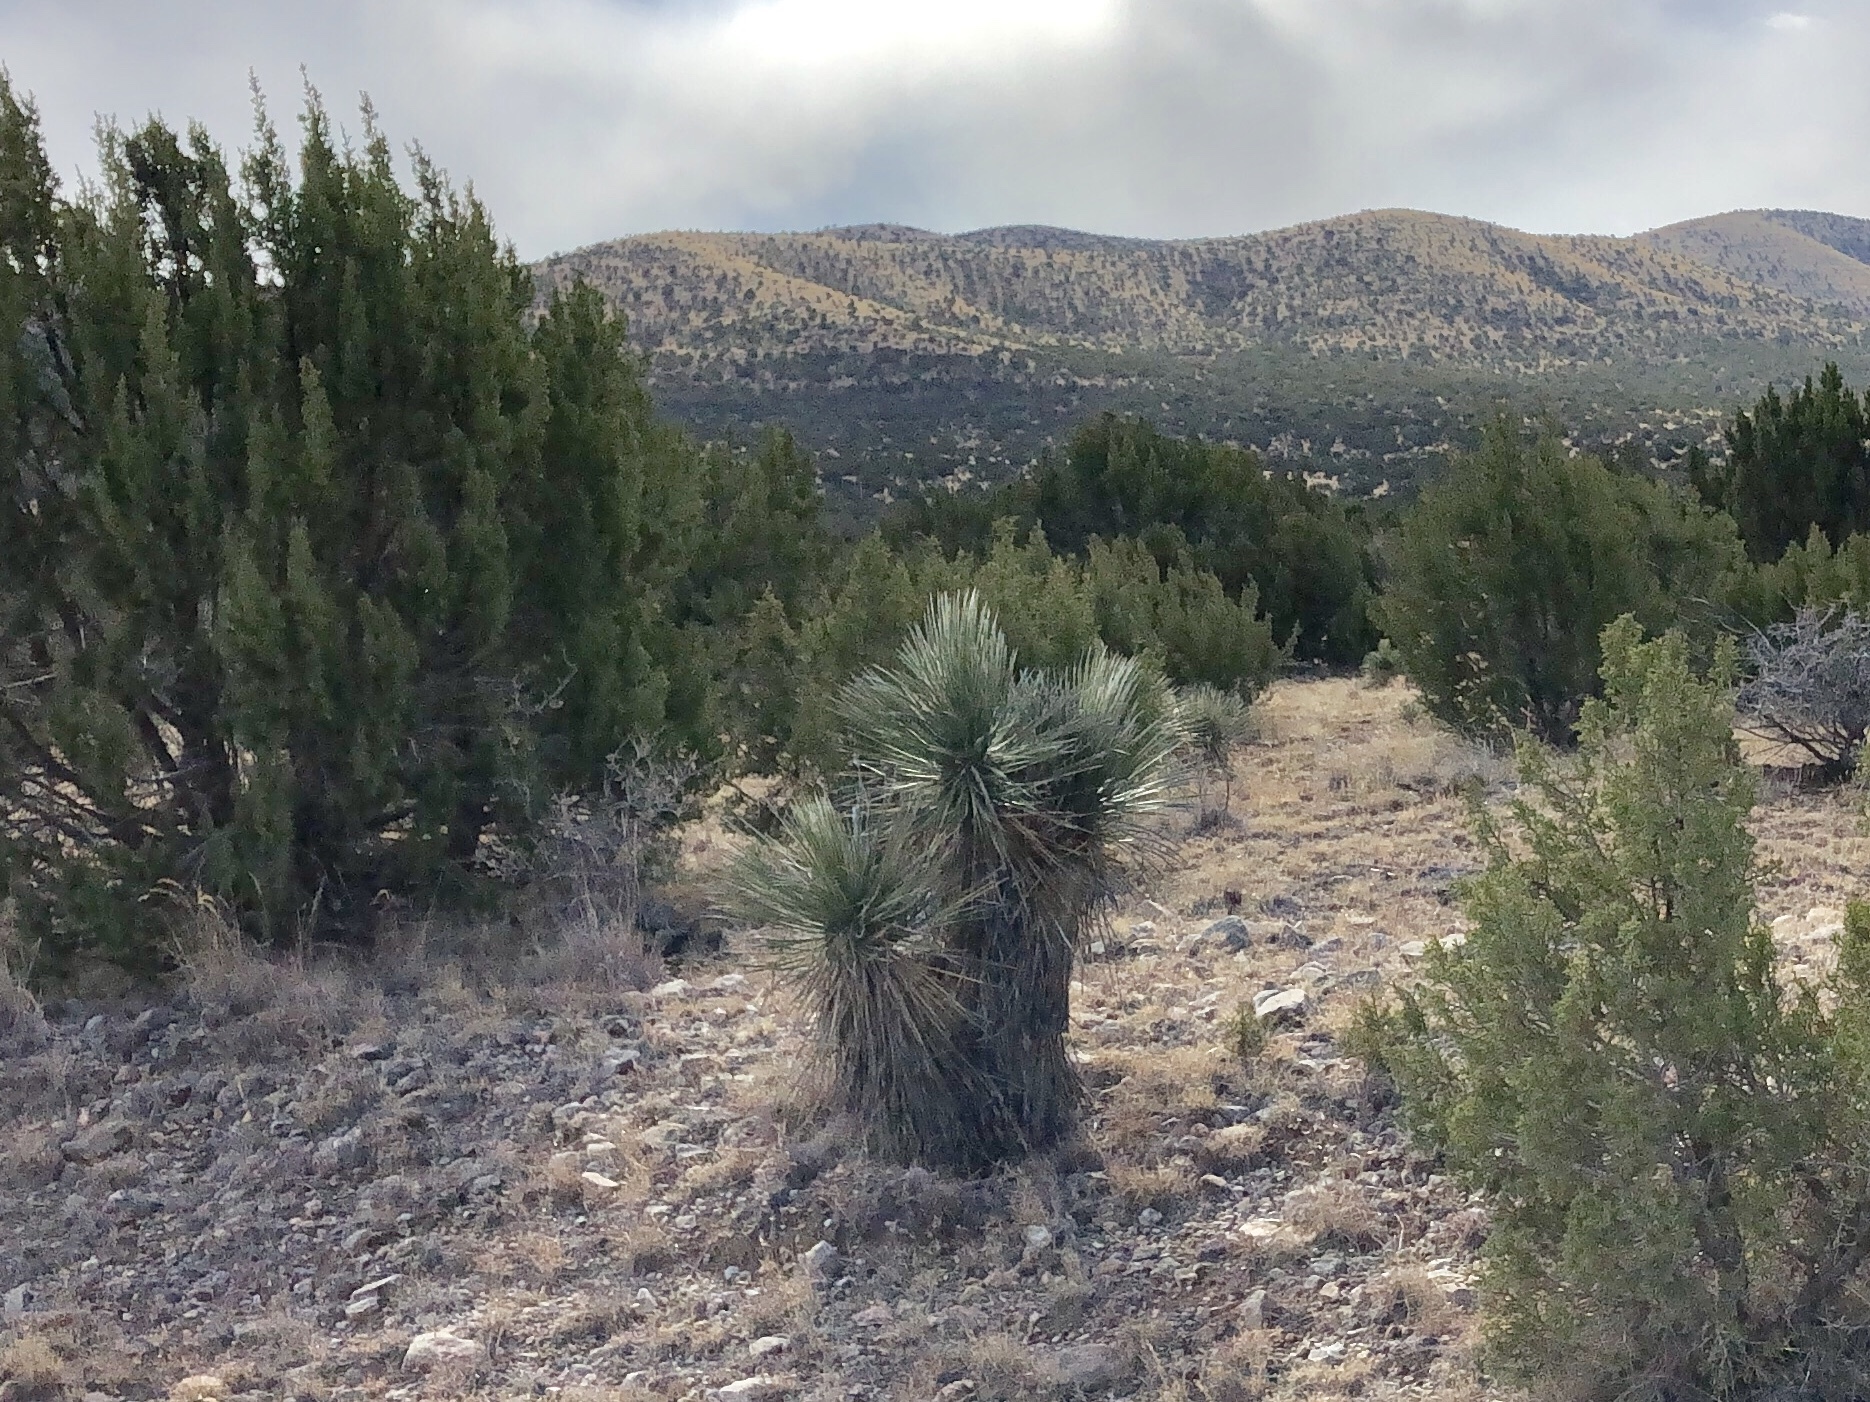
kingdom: Plantae
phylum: Tracheophyta
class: Liliopsida
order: Asparagales
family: Asparagaceae
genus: Yucca
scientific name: Yucca elata
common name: Palmella
